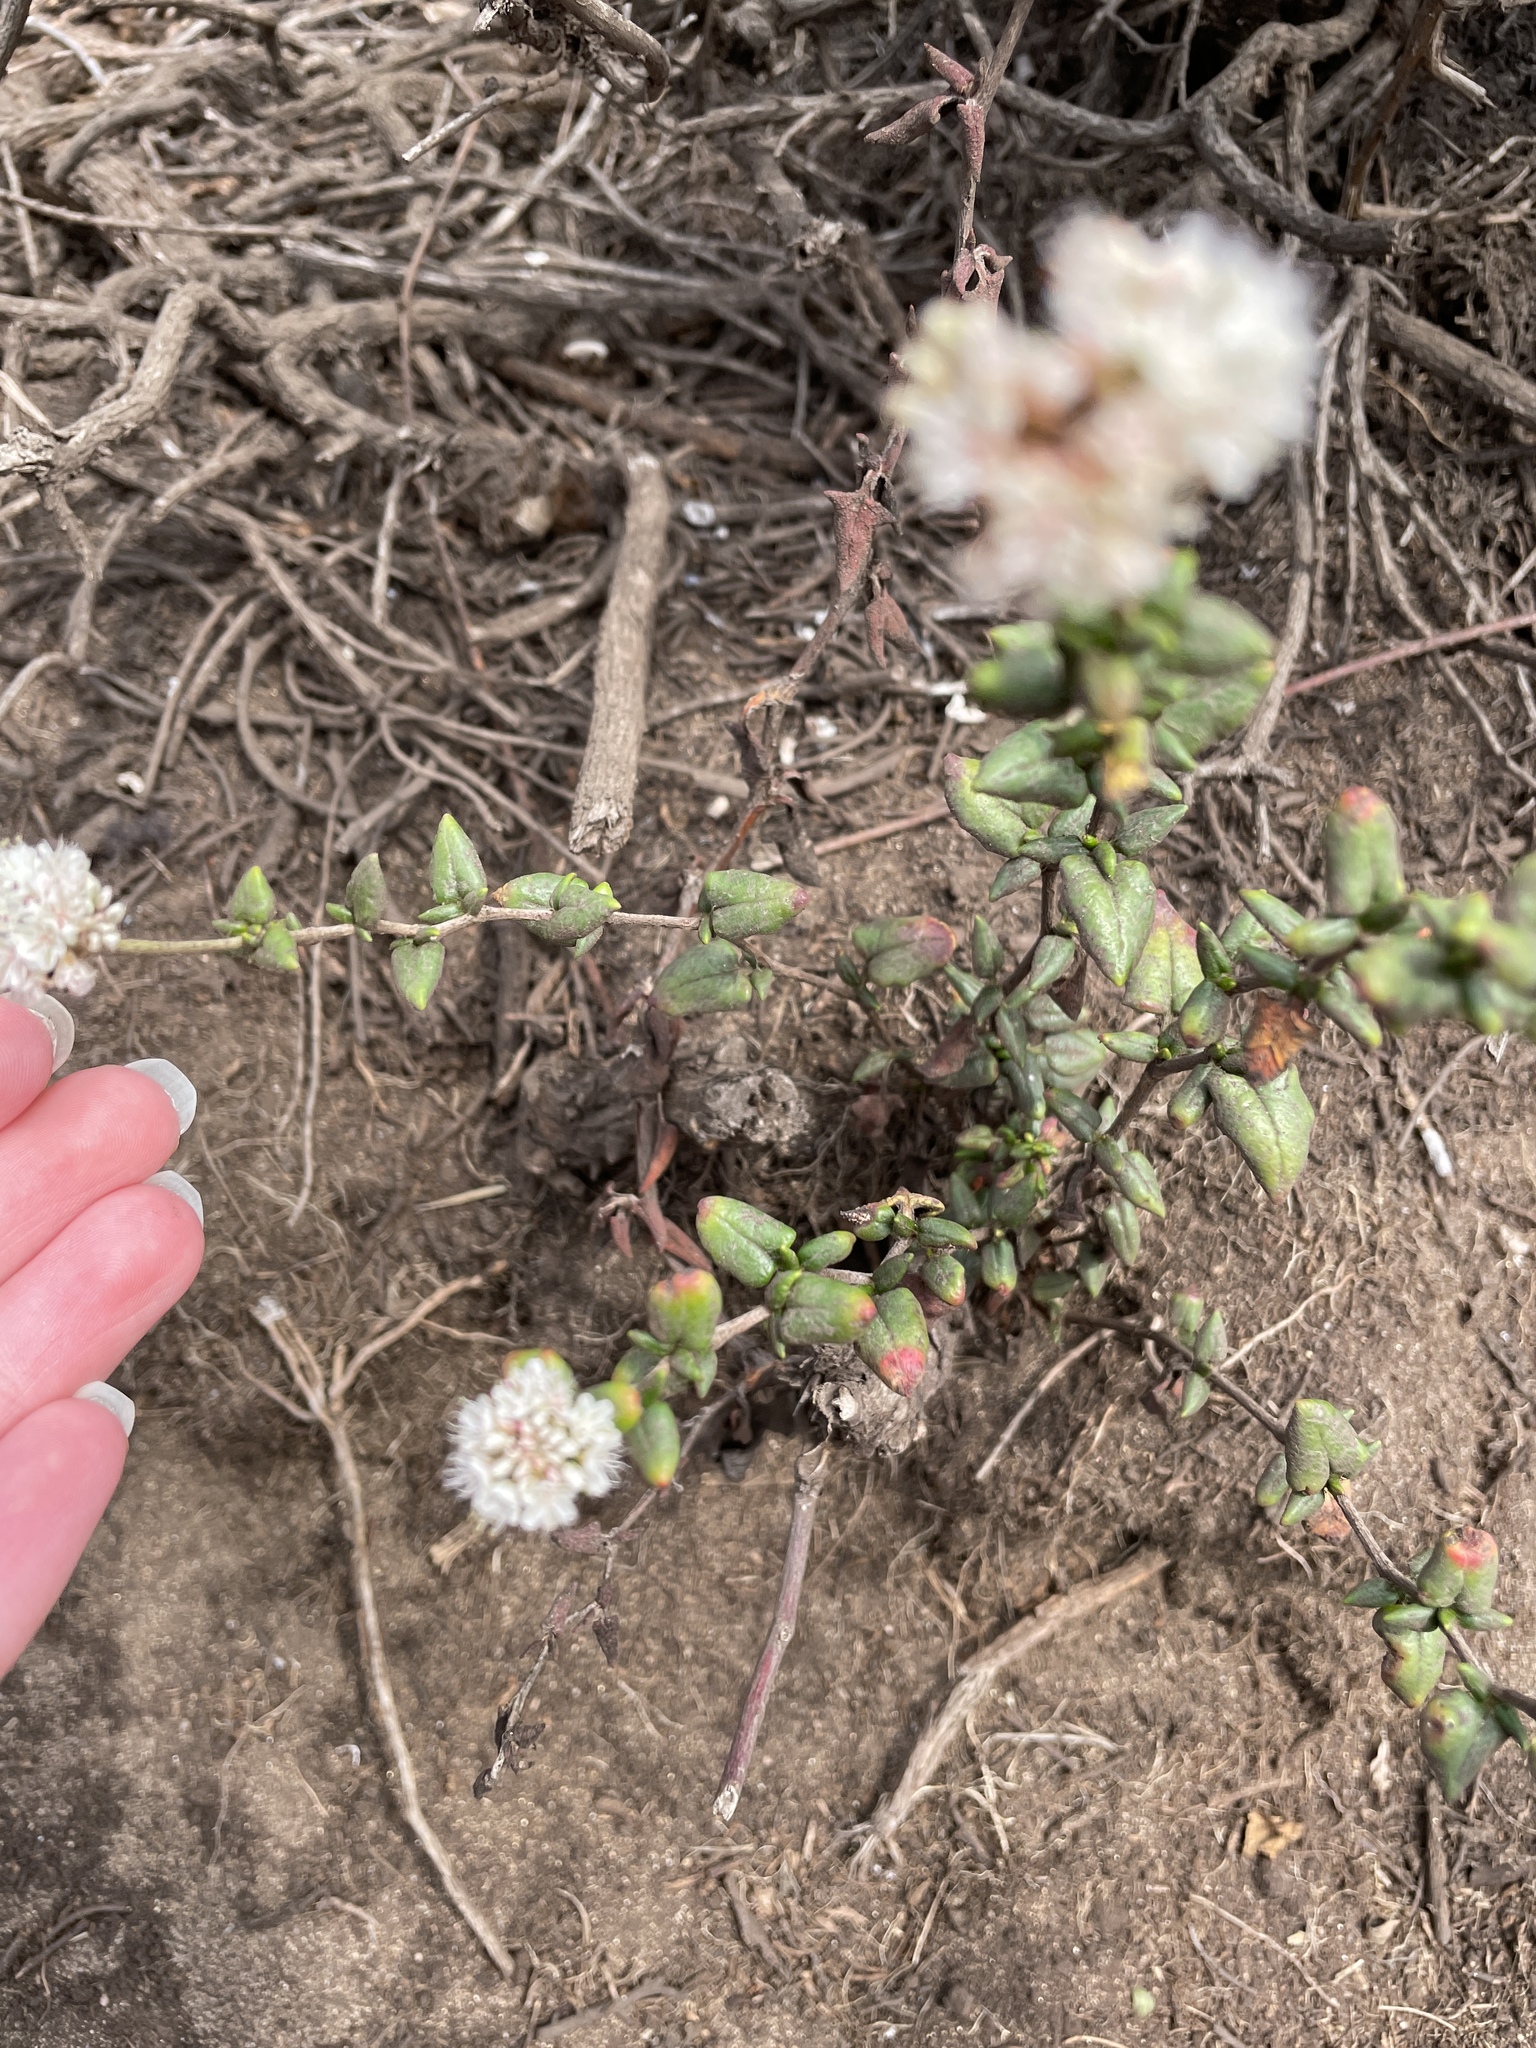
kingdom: Plantae
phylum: Tracheophyta
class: Magnoliopsida
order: Caryophyllales
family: Polygonaceae
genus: Eriogonum
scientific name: Eriogonum parvifolium
